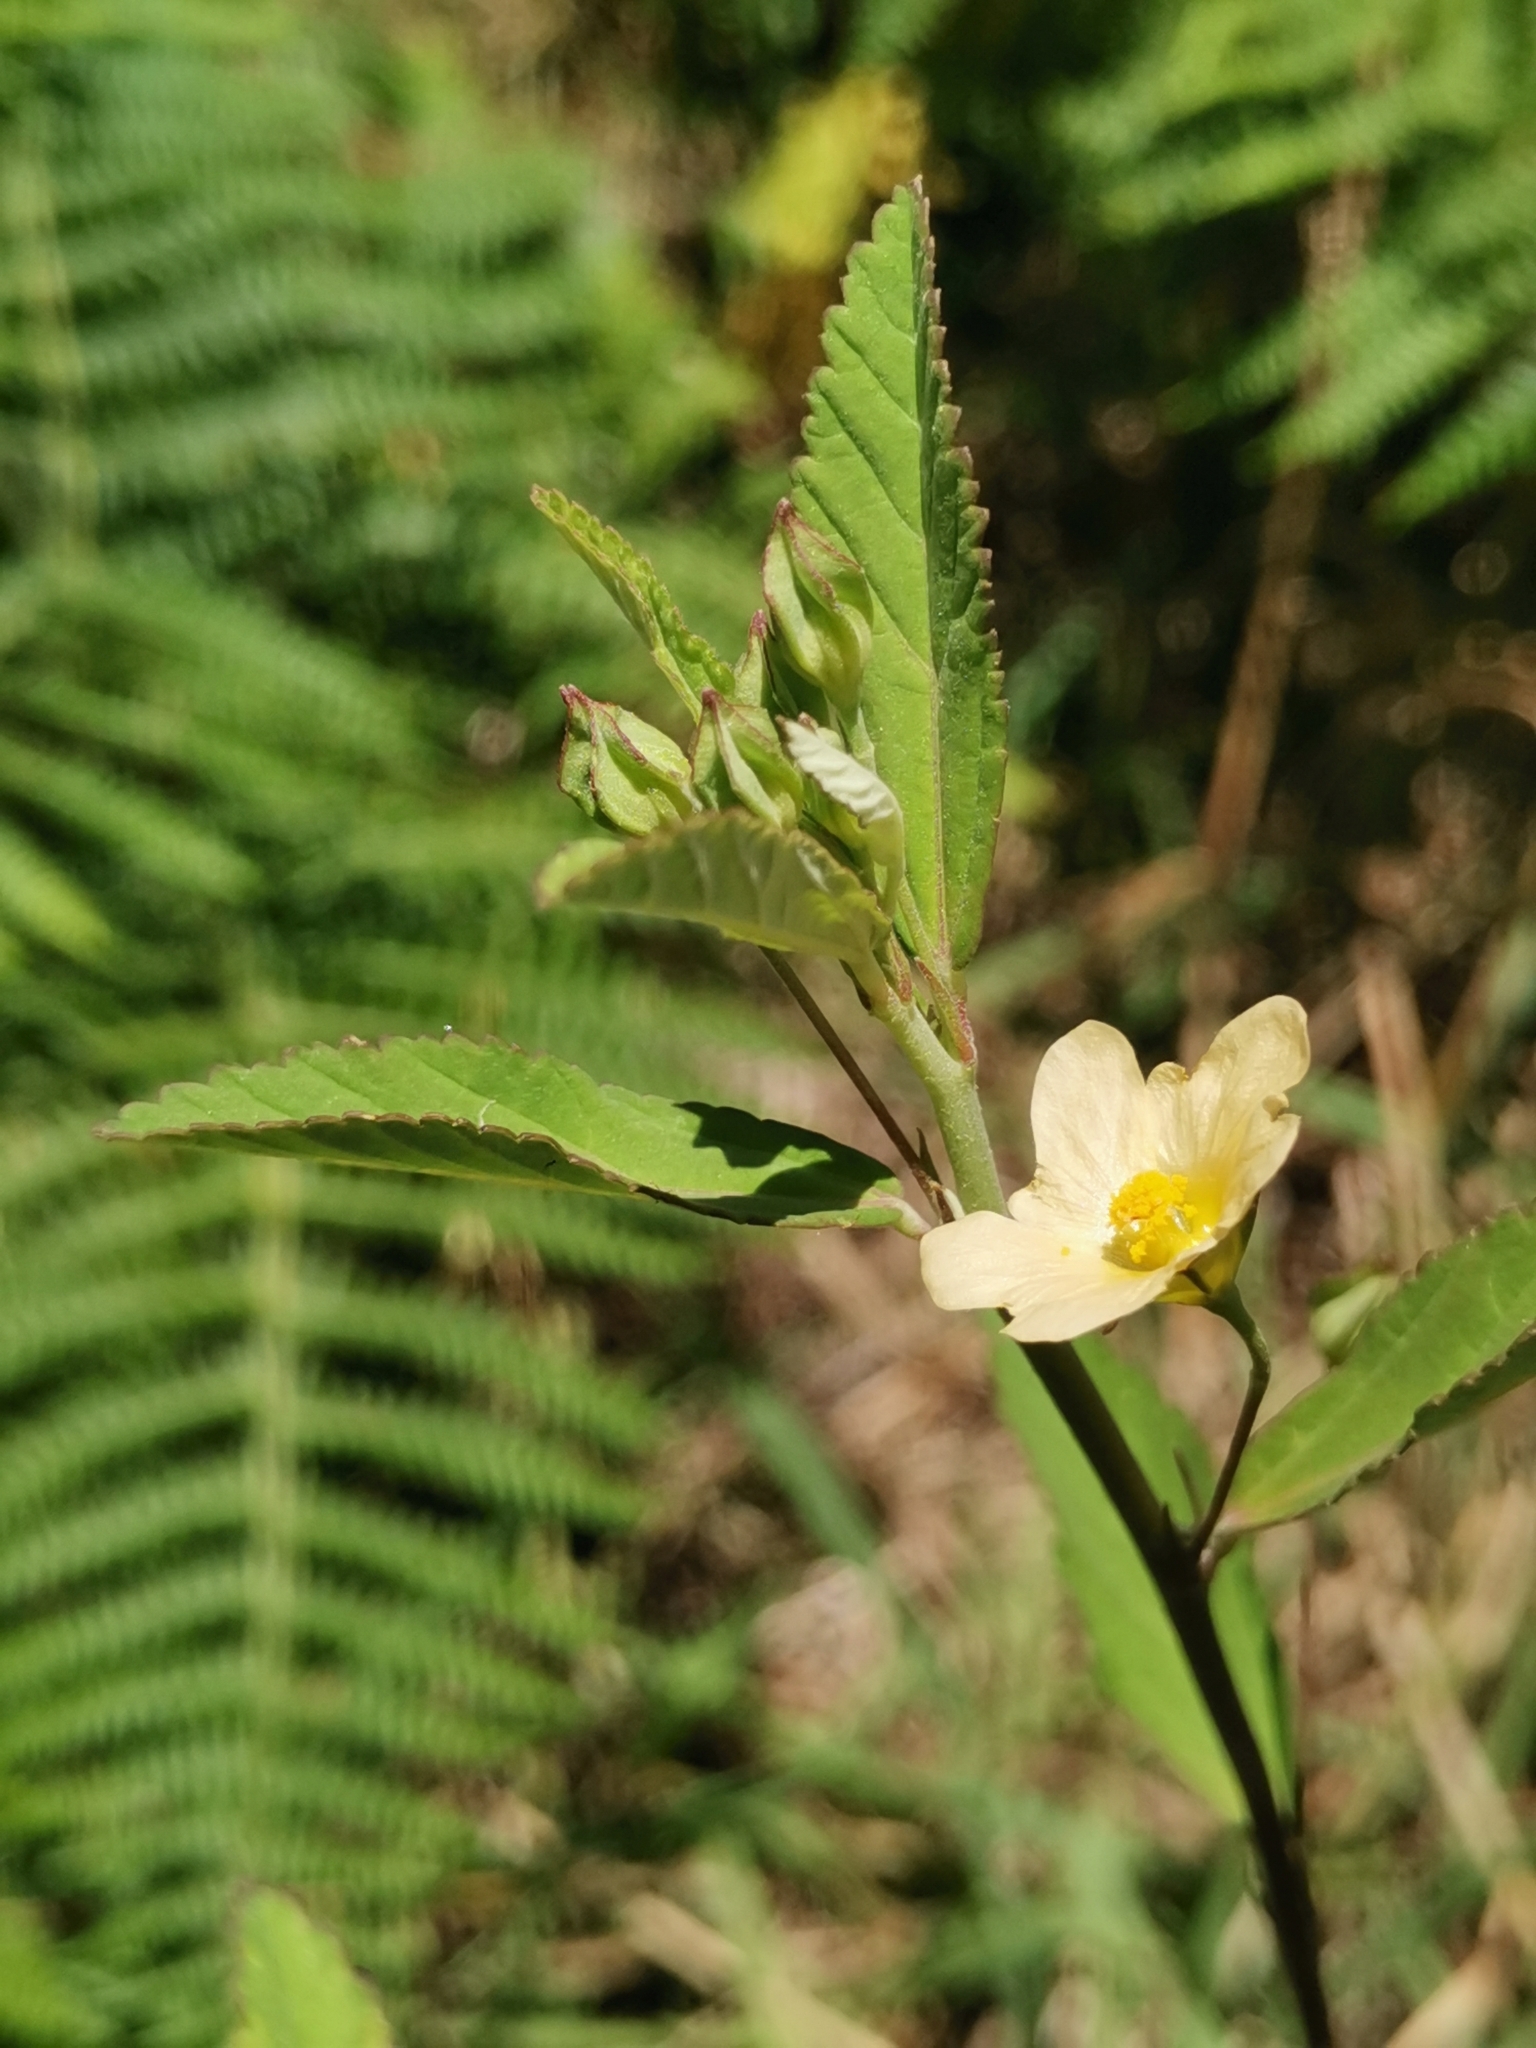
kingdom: Plantae
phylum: Tracheophyta
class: Magnoliopsida
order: Malvales
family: Malvaceae
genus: Sida
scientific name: Sida rhombifolia
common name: Queensland-hemp
